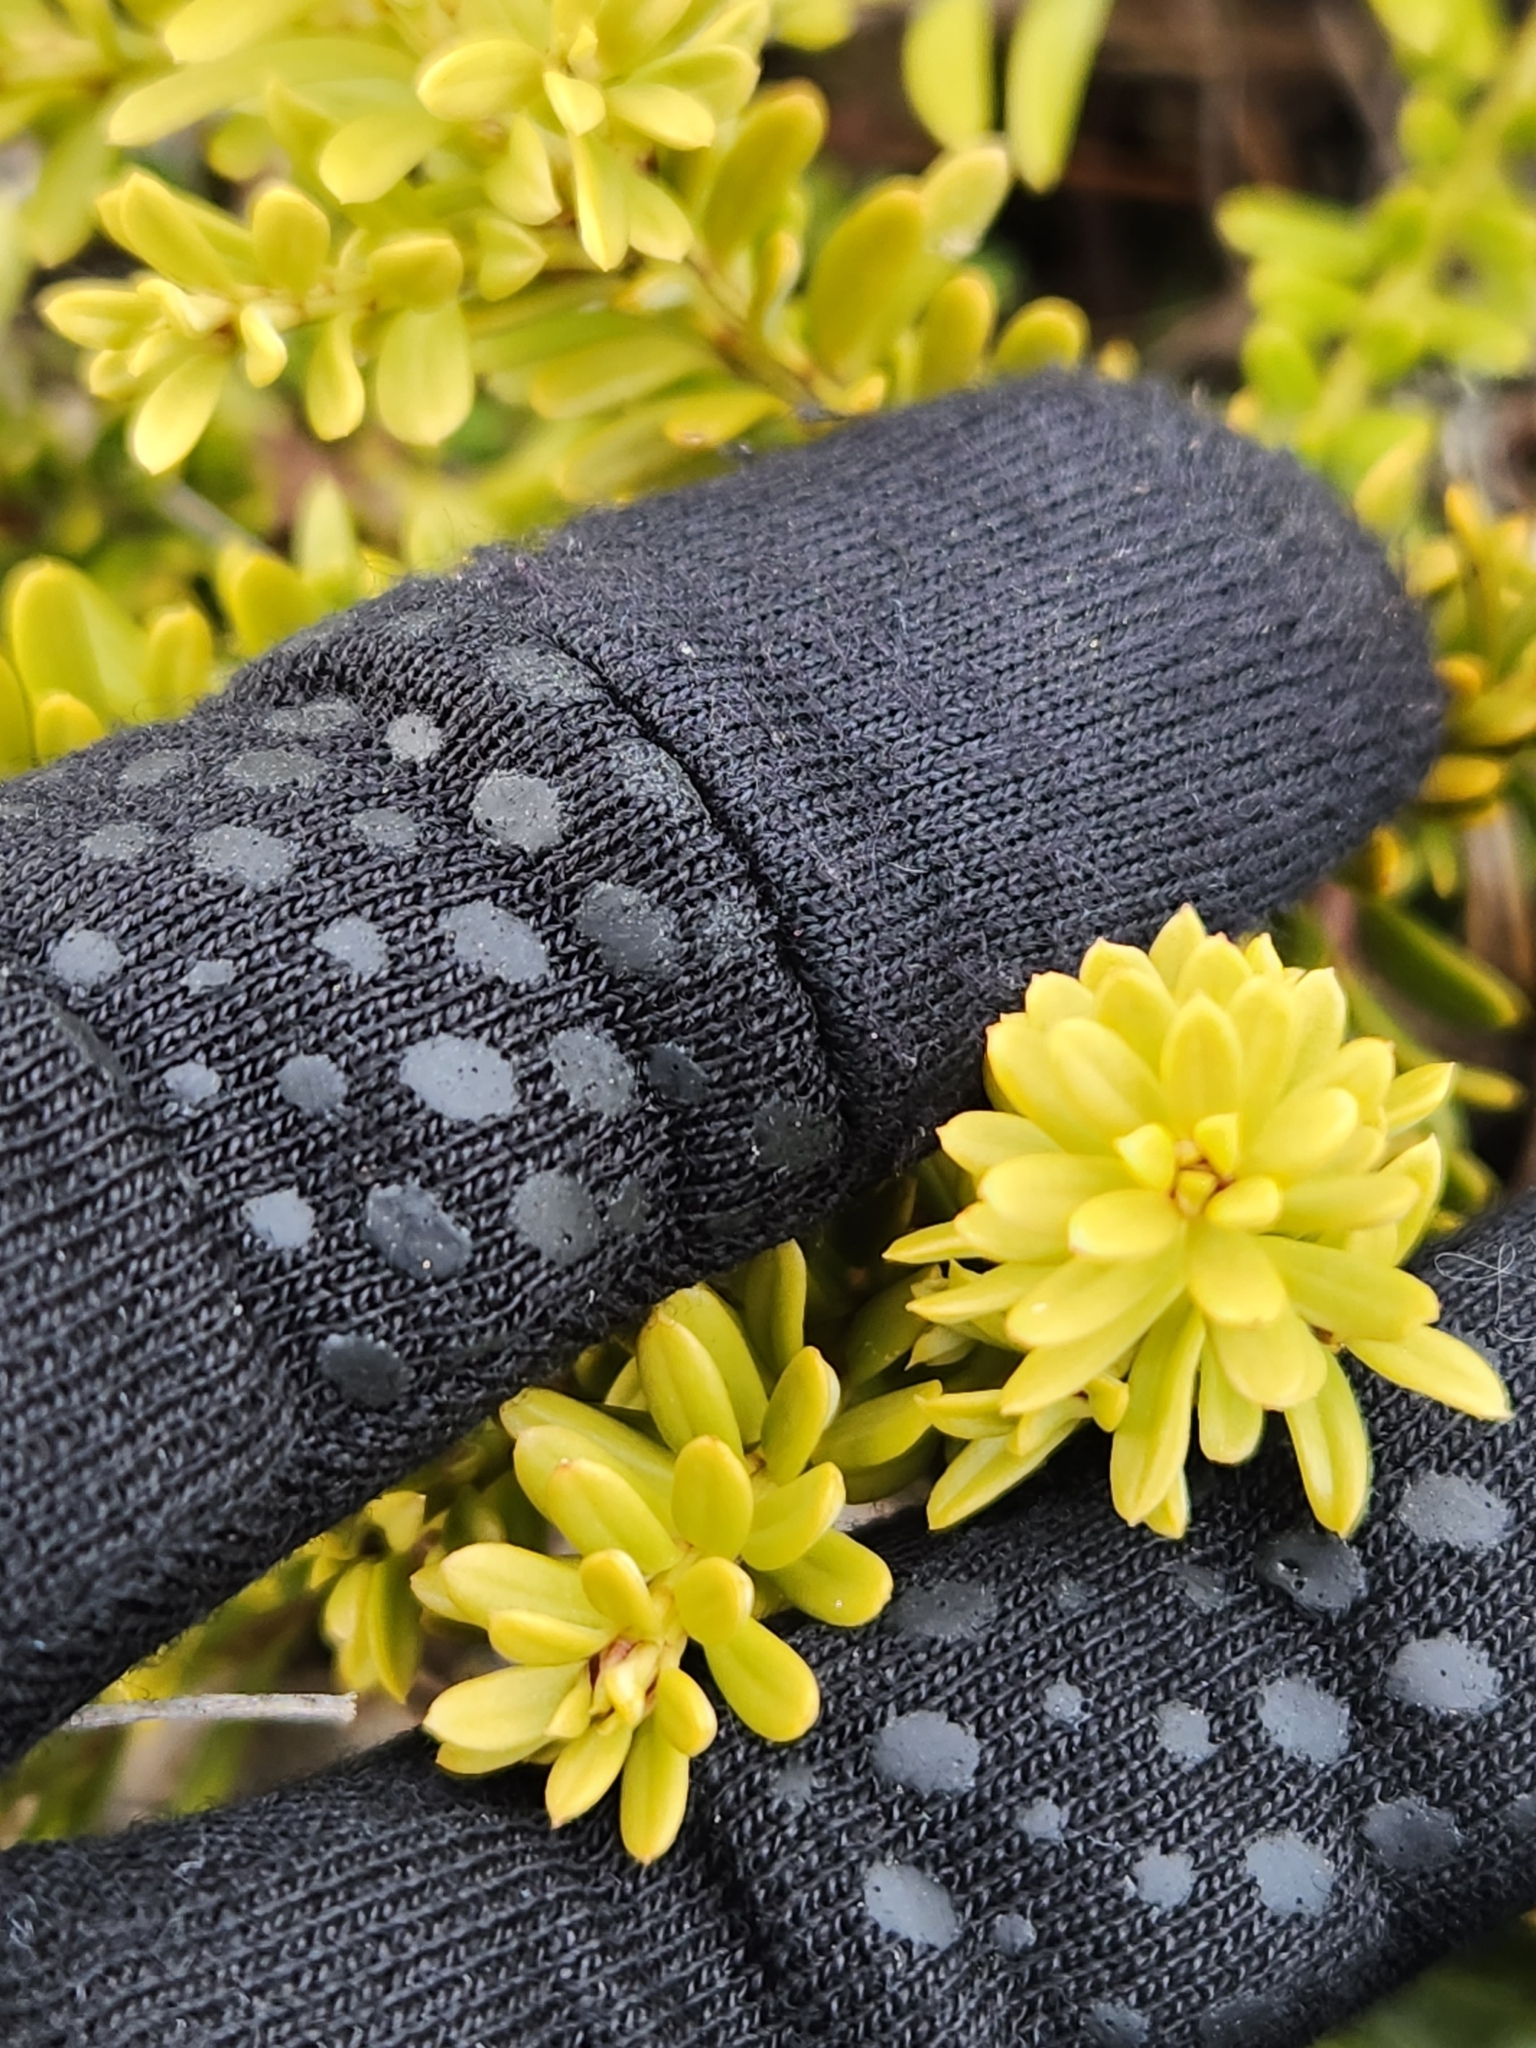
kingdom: Plantae
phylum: Tracheophyta
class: Pinopsida
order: Pinales
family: Podocarpaceae
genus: Podocarpus
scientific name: Podocarpus nivalis
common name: Alpine totara
